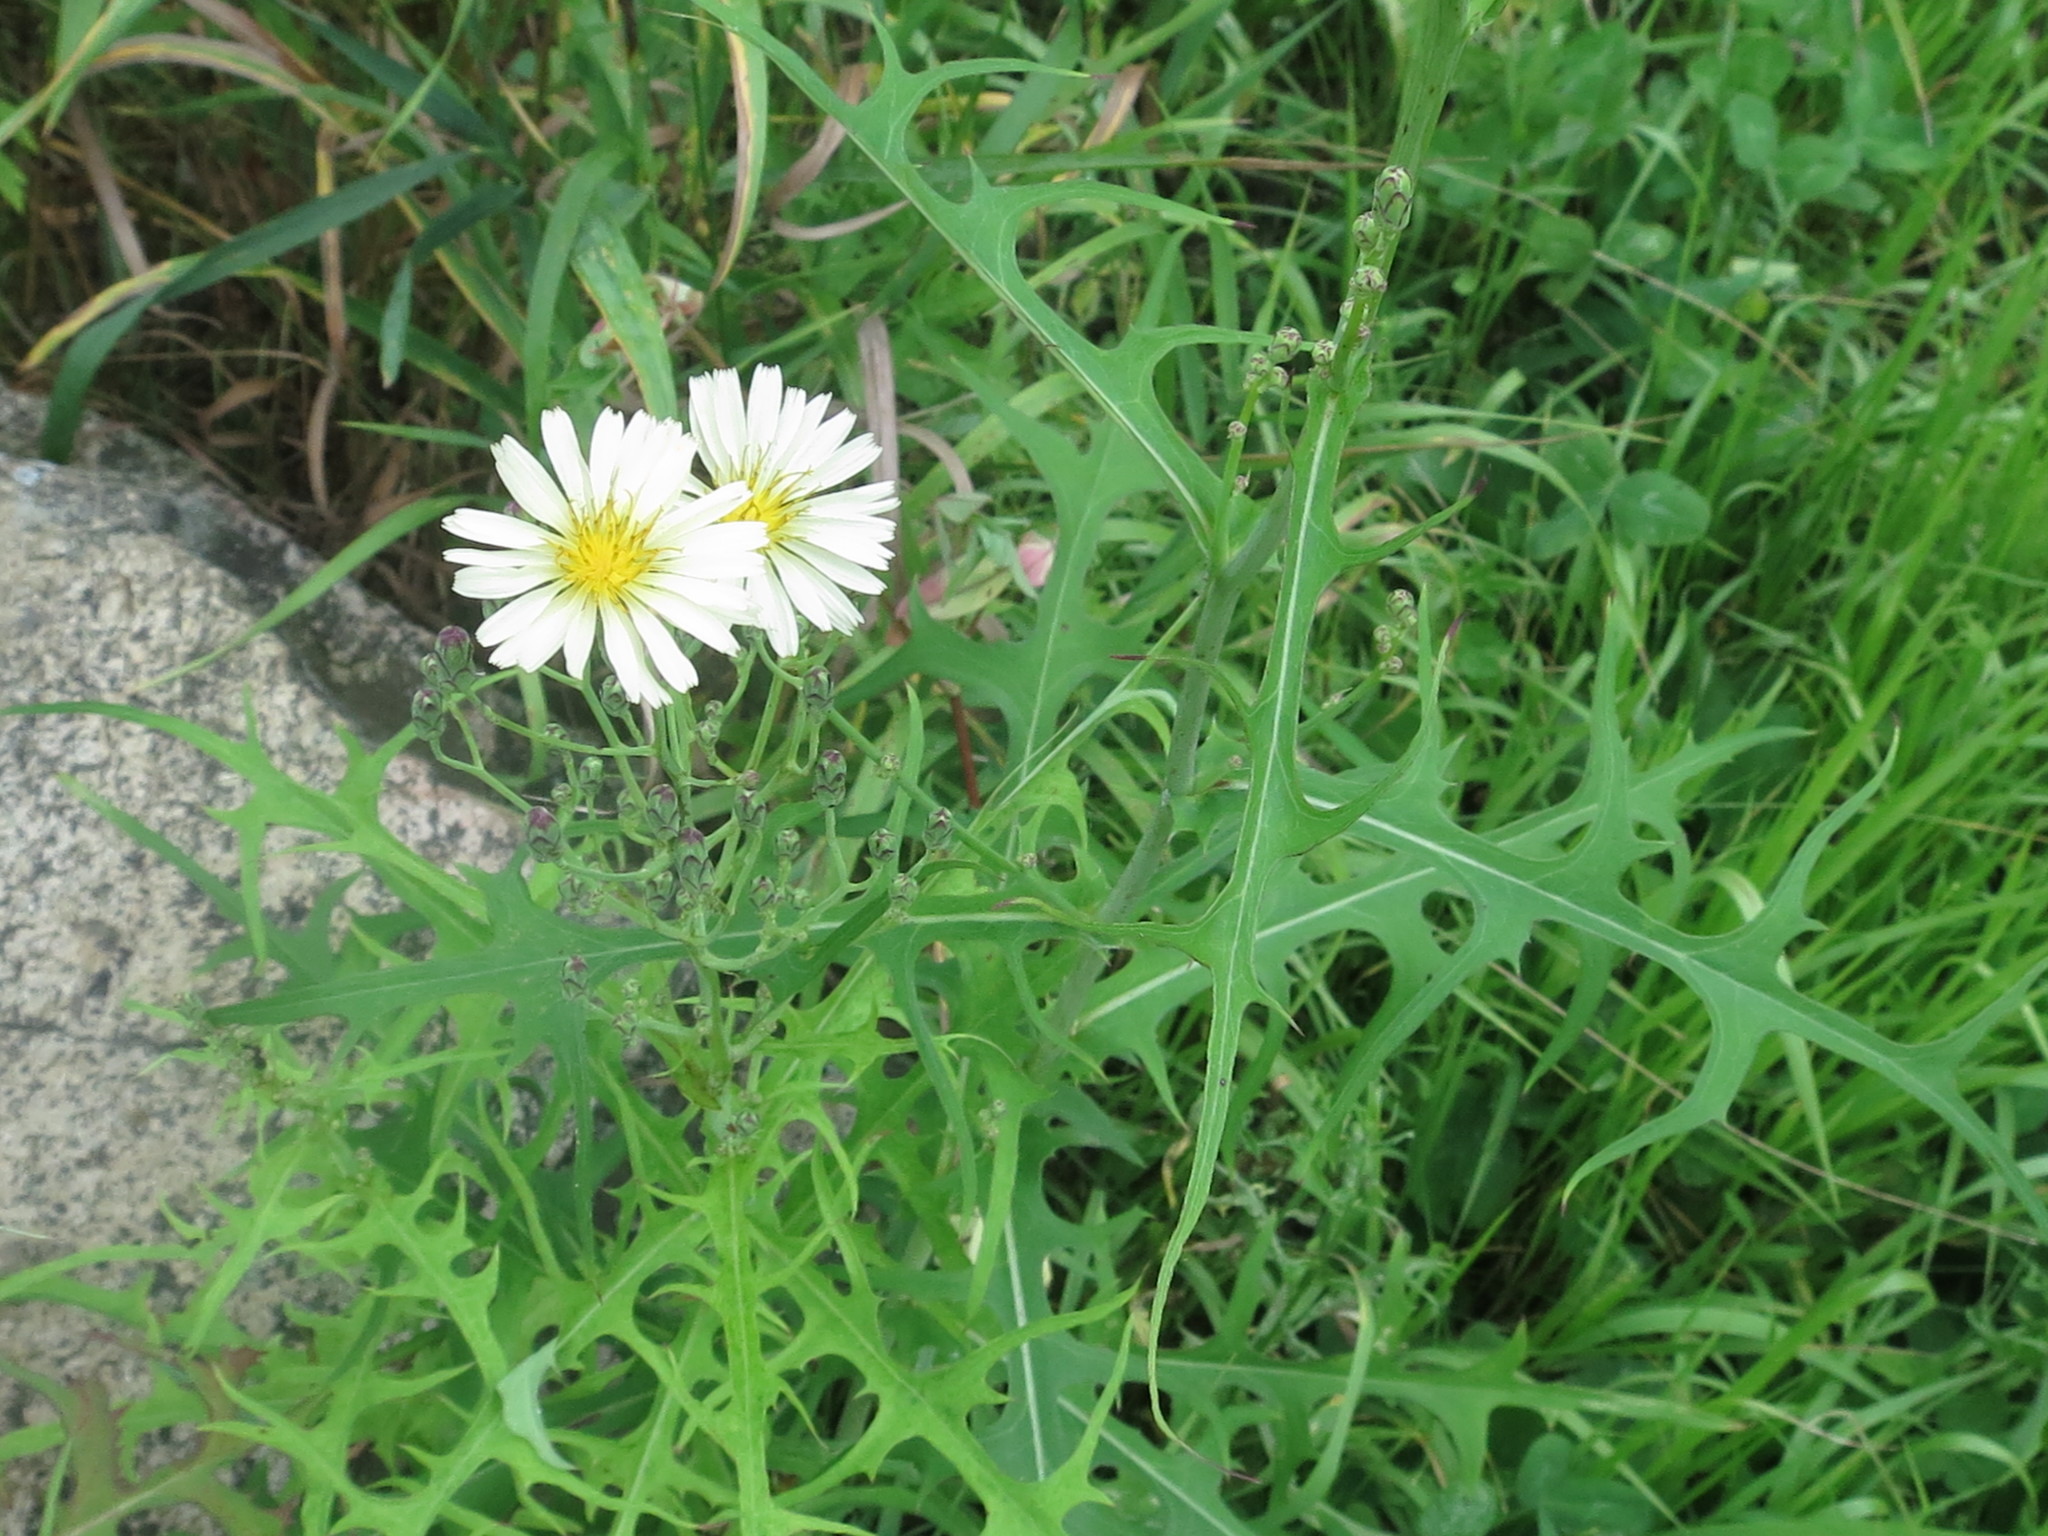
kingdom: Plantae
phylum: Tracheophyta
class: Magnoliopsida
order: Asterales
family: Asteraceae
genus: Lactuca
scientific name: Lactuca indica
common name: Wild lettuce
